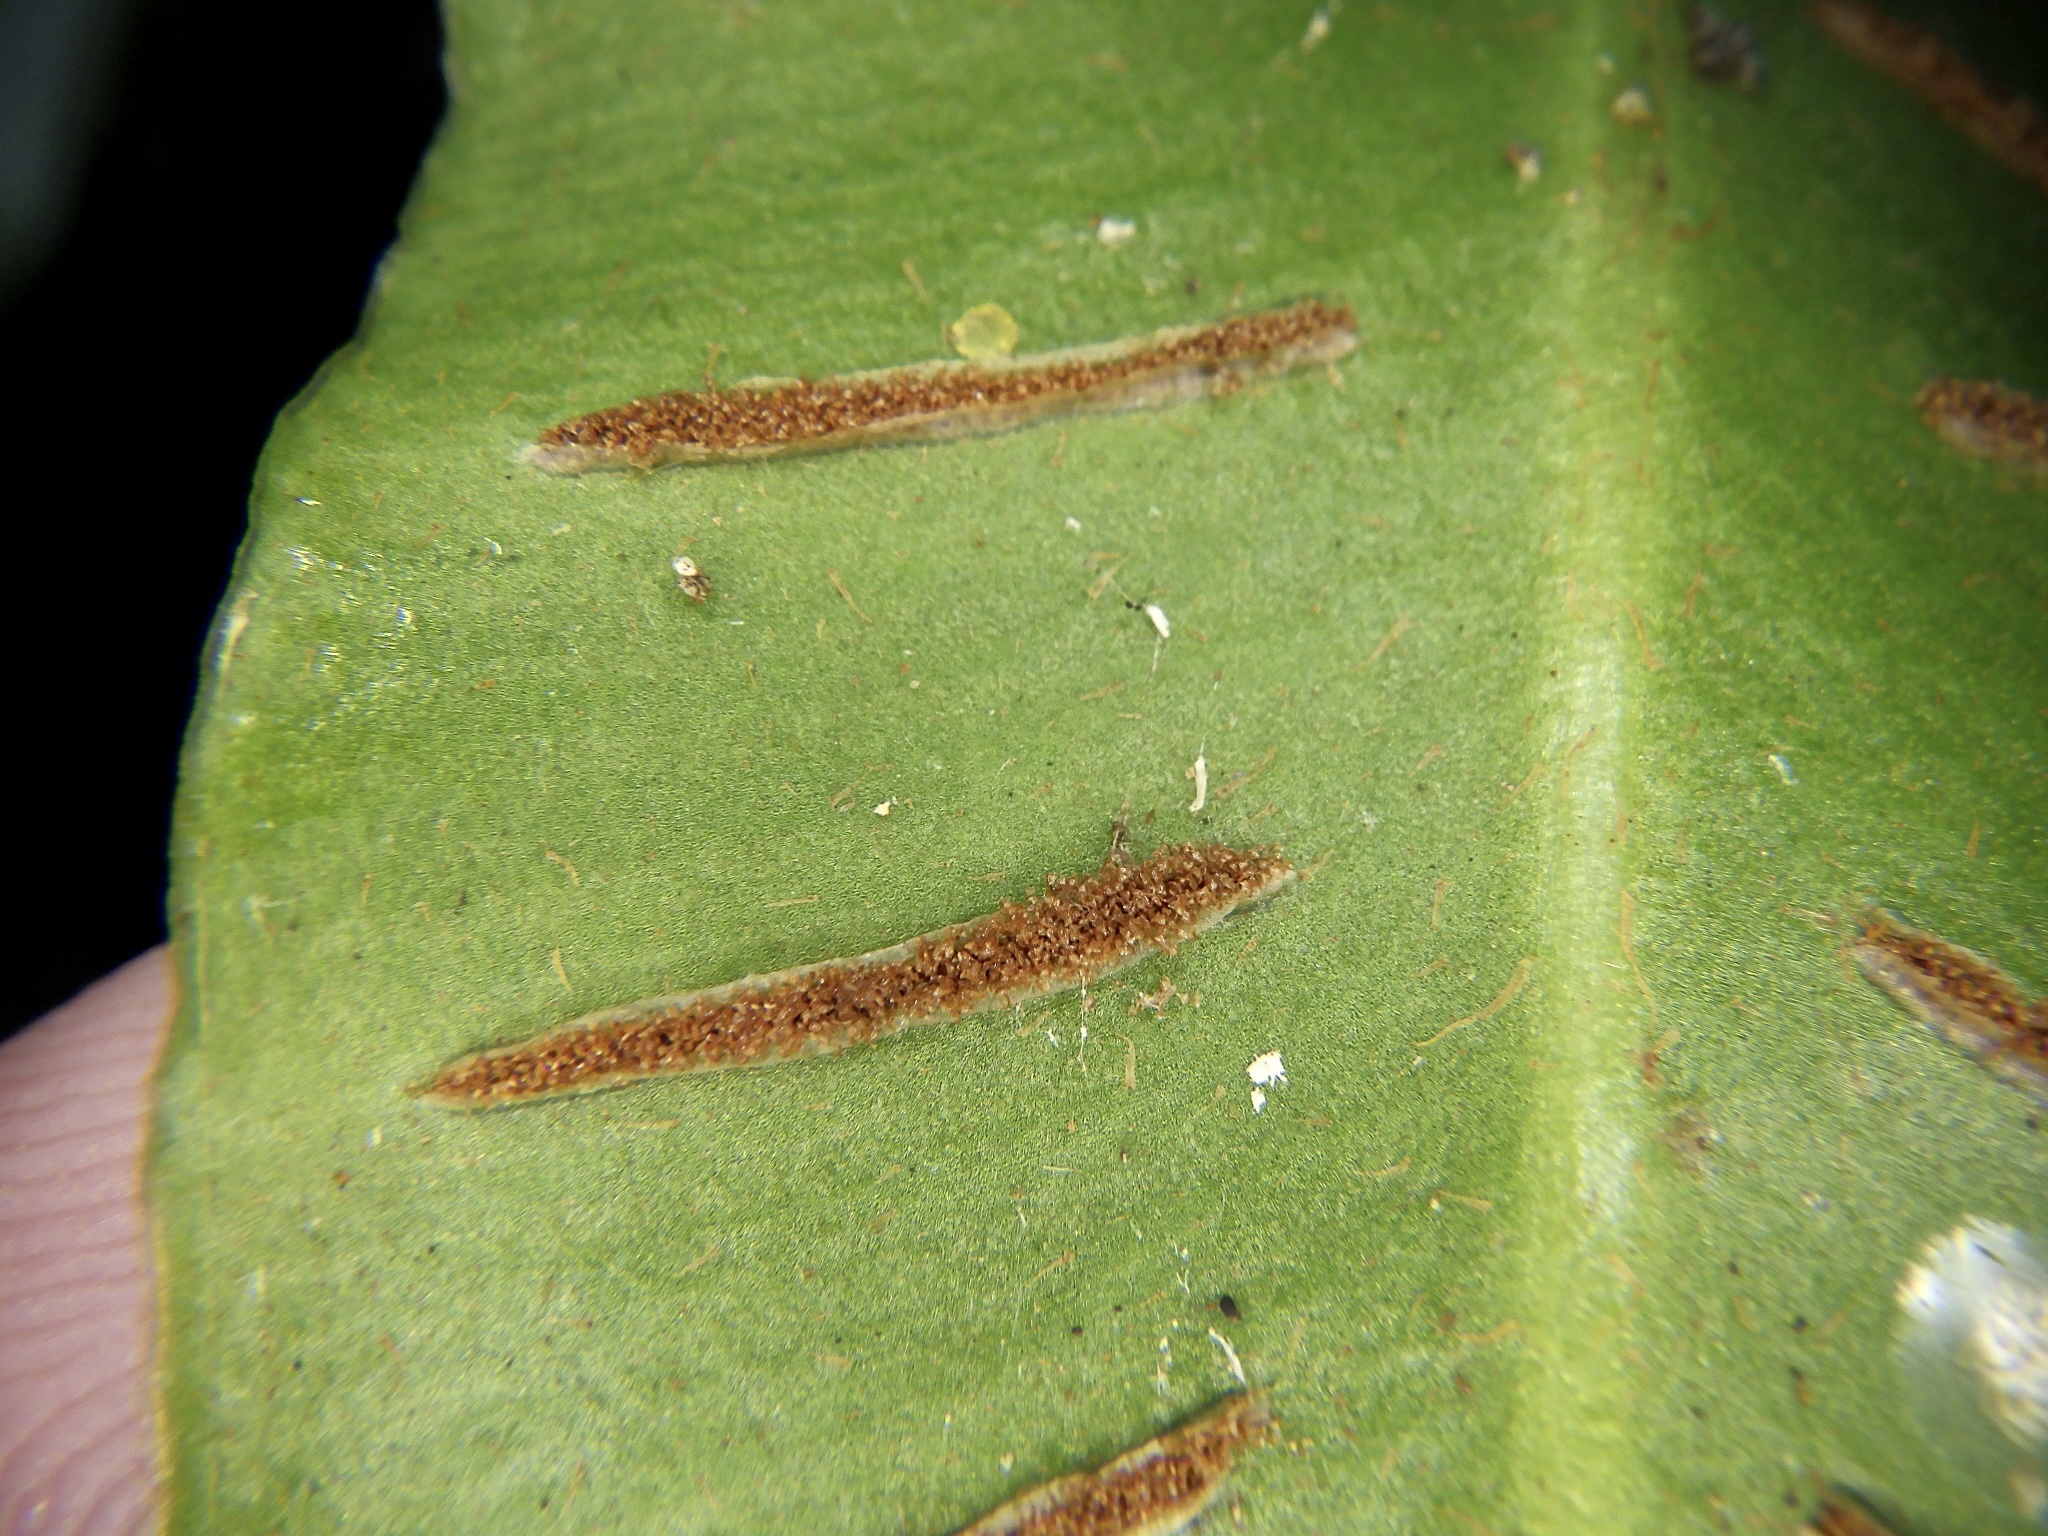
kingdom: Plantae
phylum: Tracheophyta
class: Polypodiopsida
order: Polypodiales
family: Aspleniaceae
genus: Asplenium
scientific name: Asplenium scolopendrium
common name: Hart's-tongue fern
